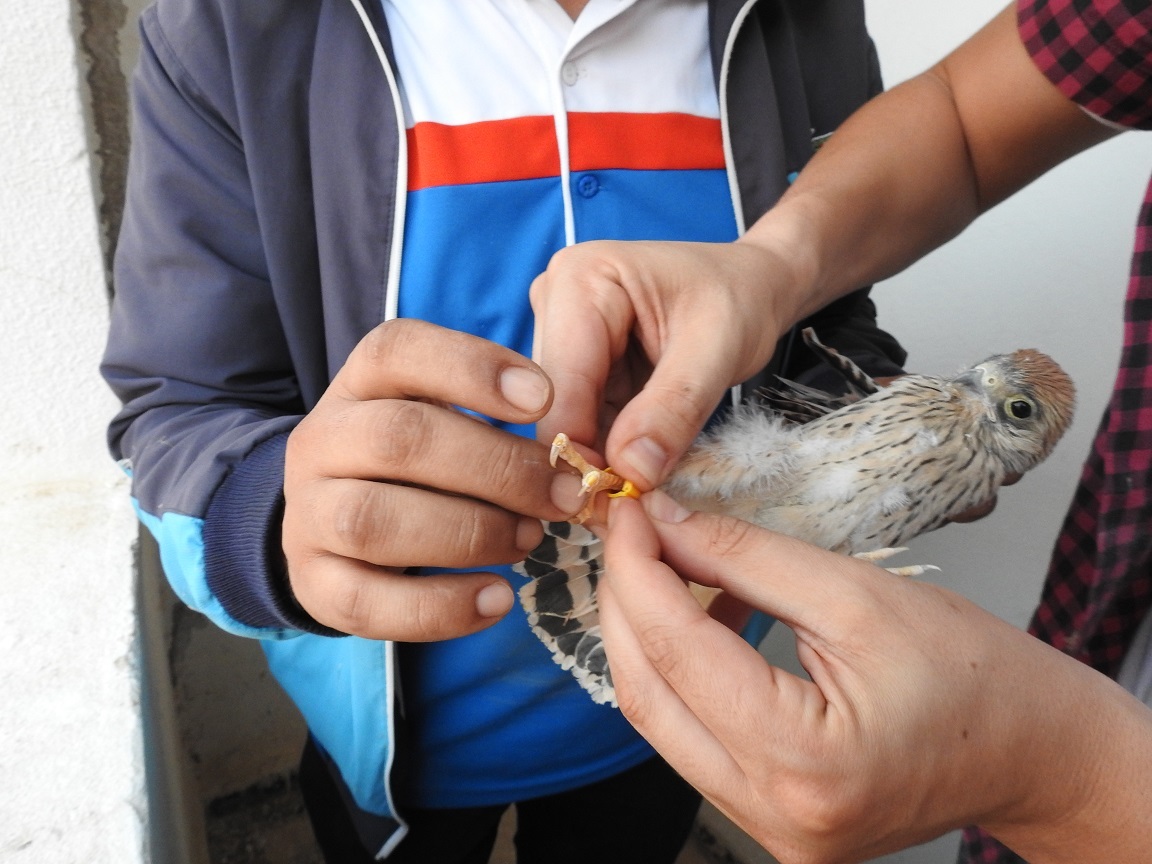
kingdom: Animalia
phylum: Chordata
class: Aves
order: Falconiformes
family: Falconidae
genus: Falco
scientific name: Falco naumanni
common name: Lesser kestrel
